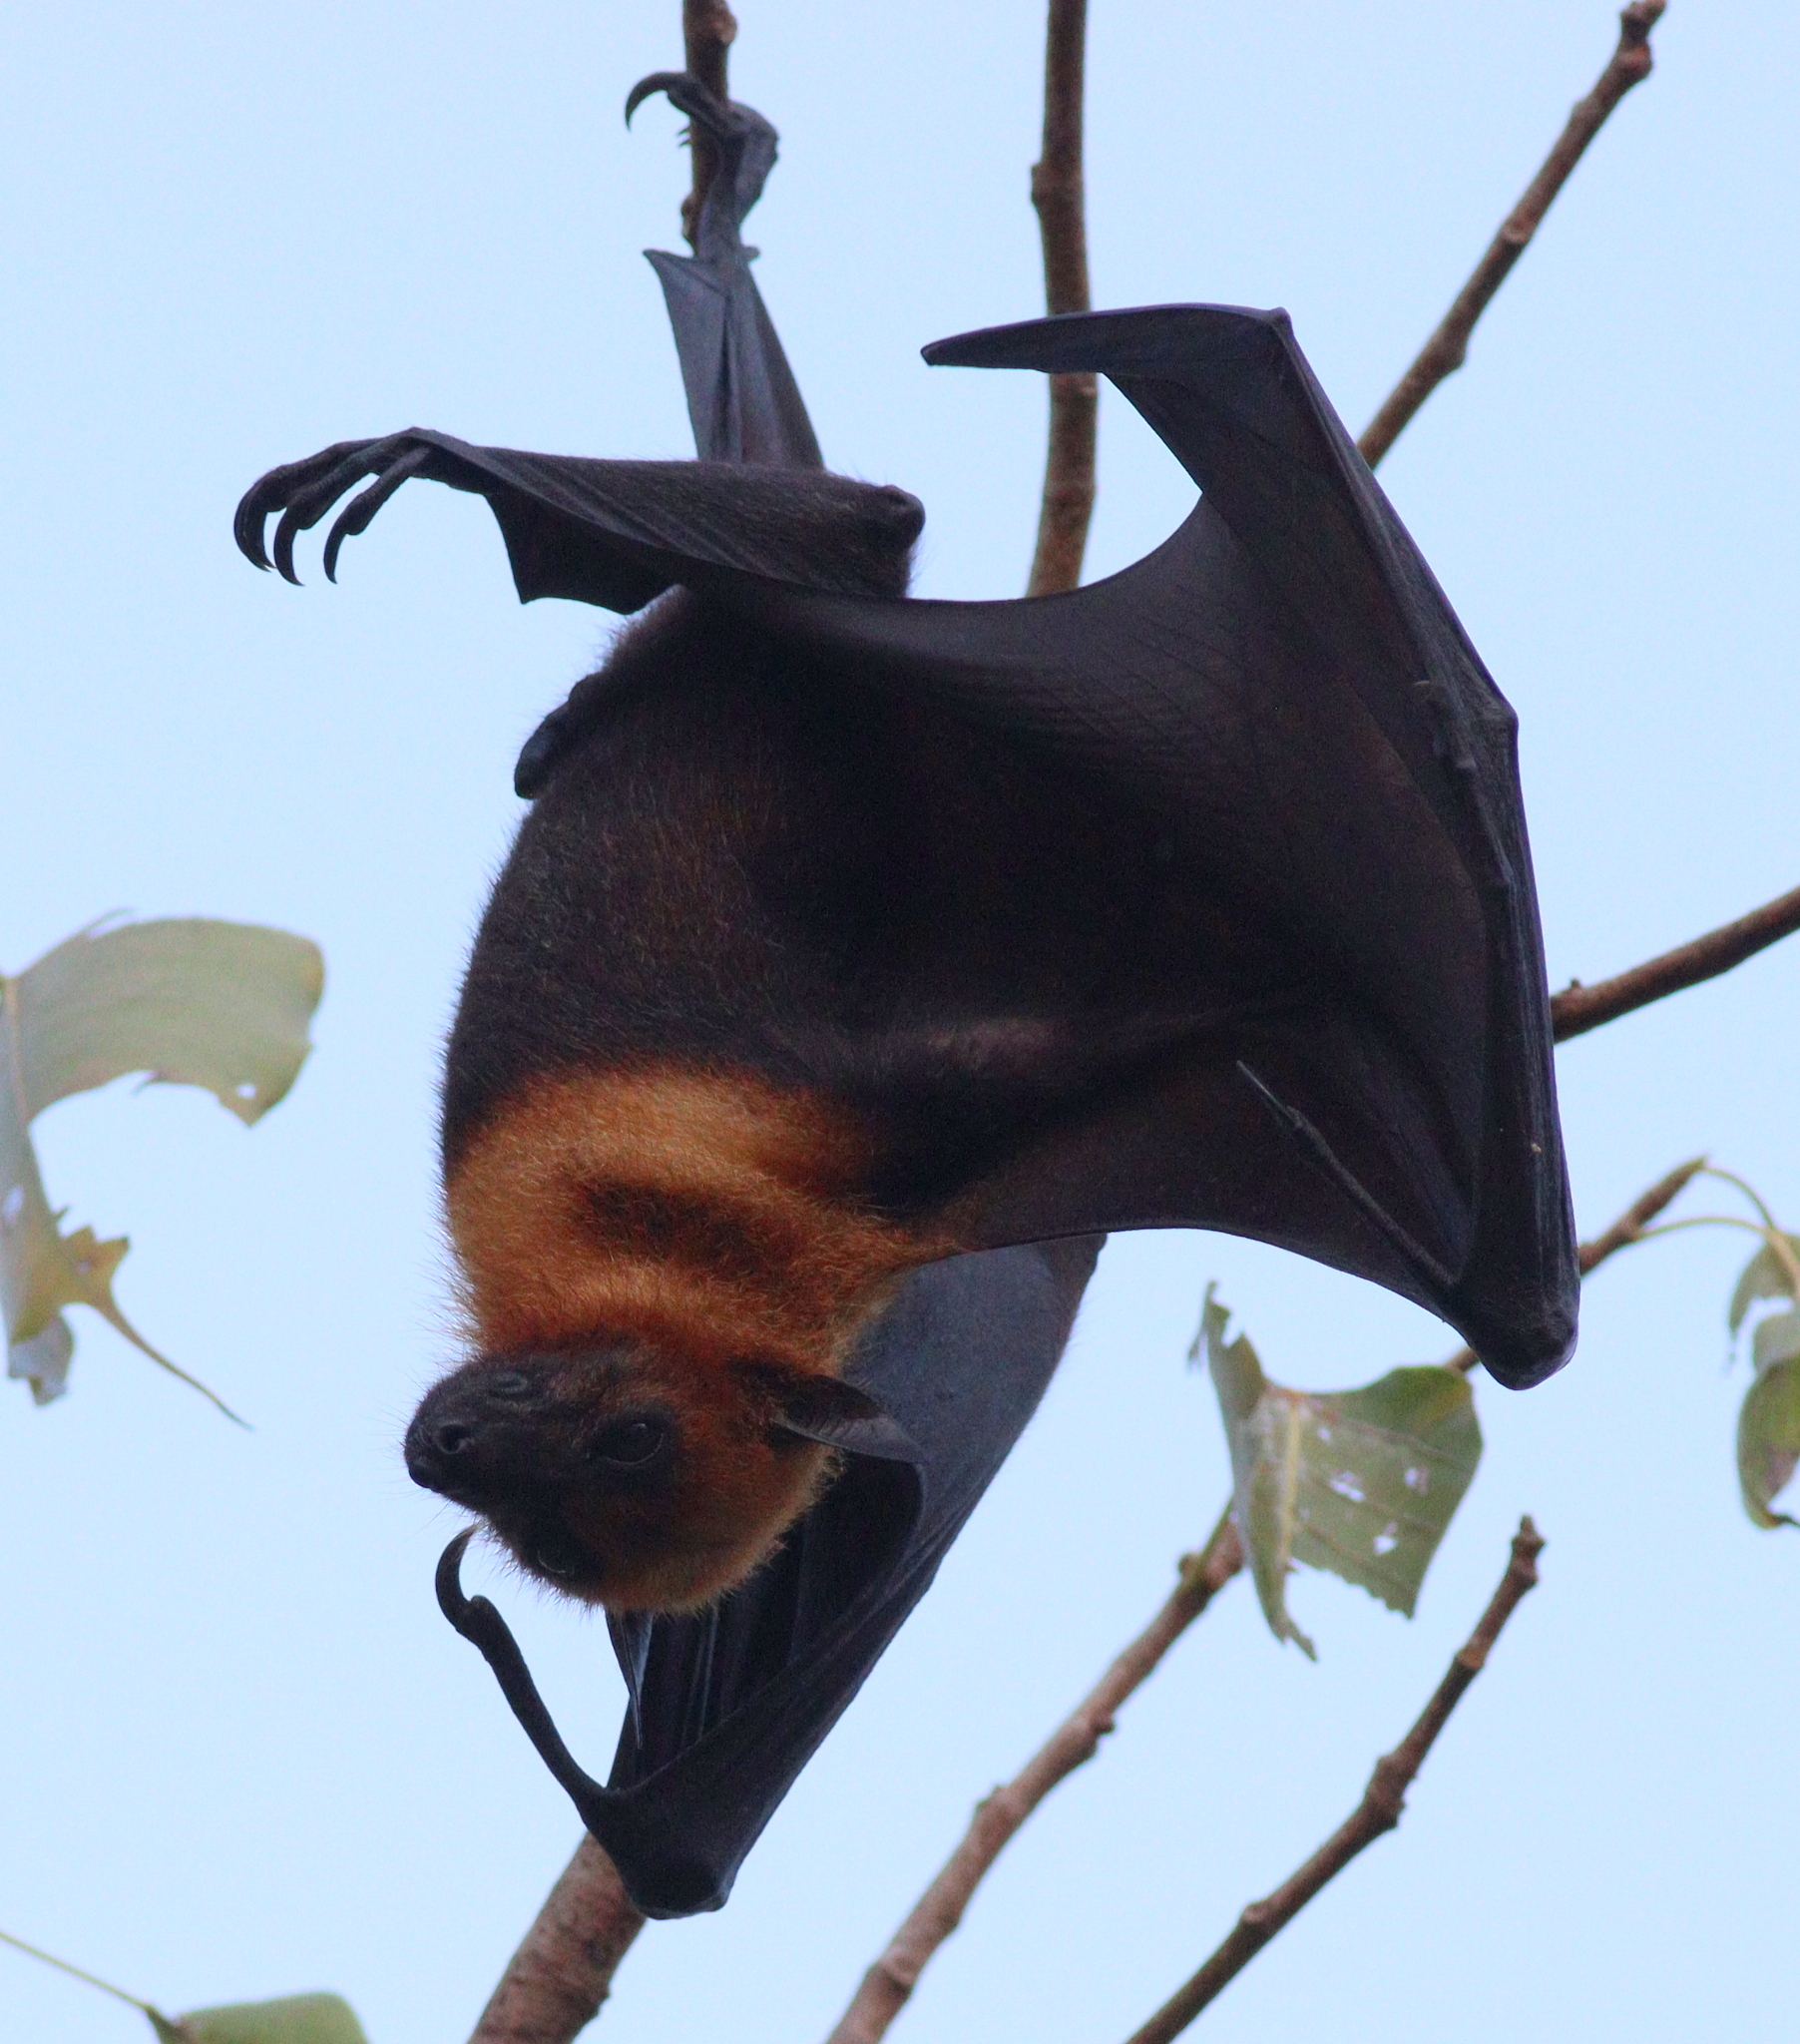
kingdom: Animalia
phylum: Chordata
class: Mammalia
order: Chiroptera
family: Pteropodidae
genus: Pteropus
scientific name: Pteropus lylei
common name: Lyle's flying fox
